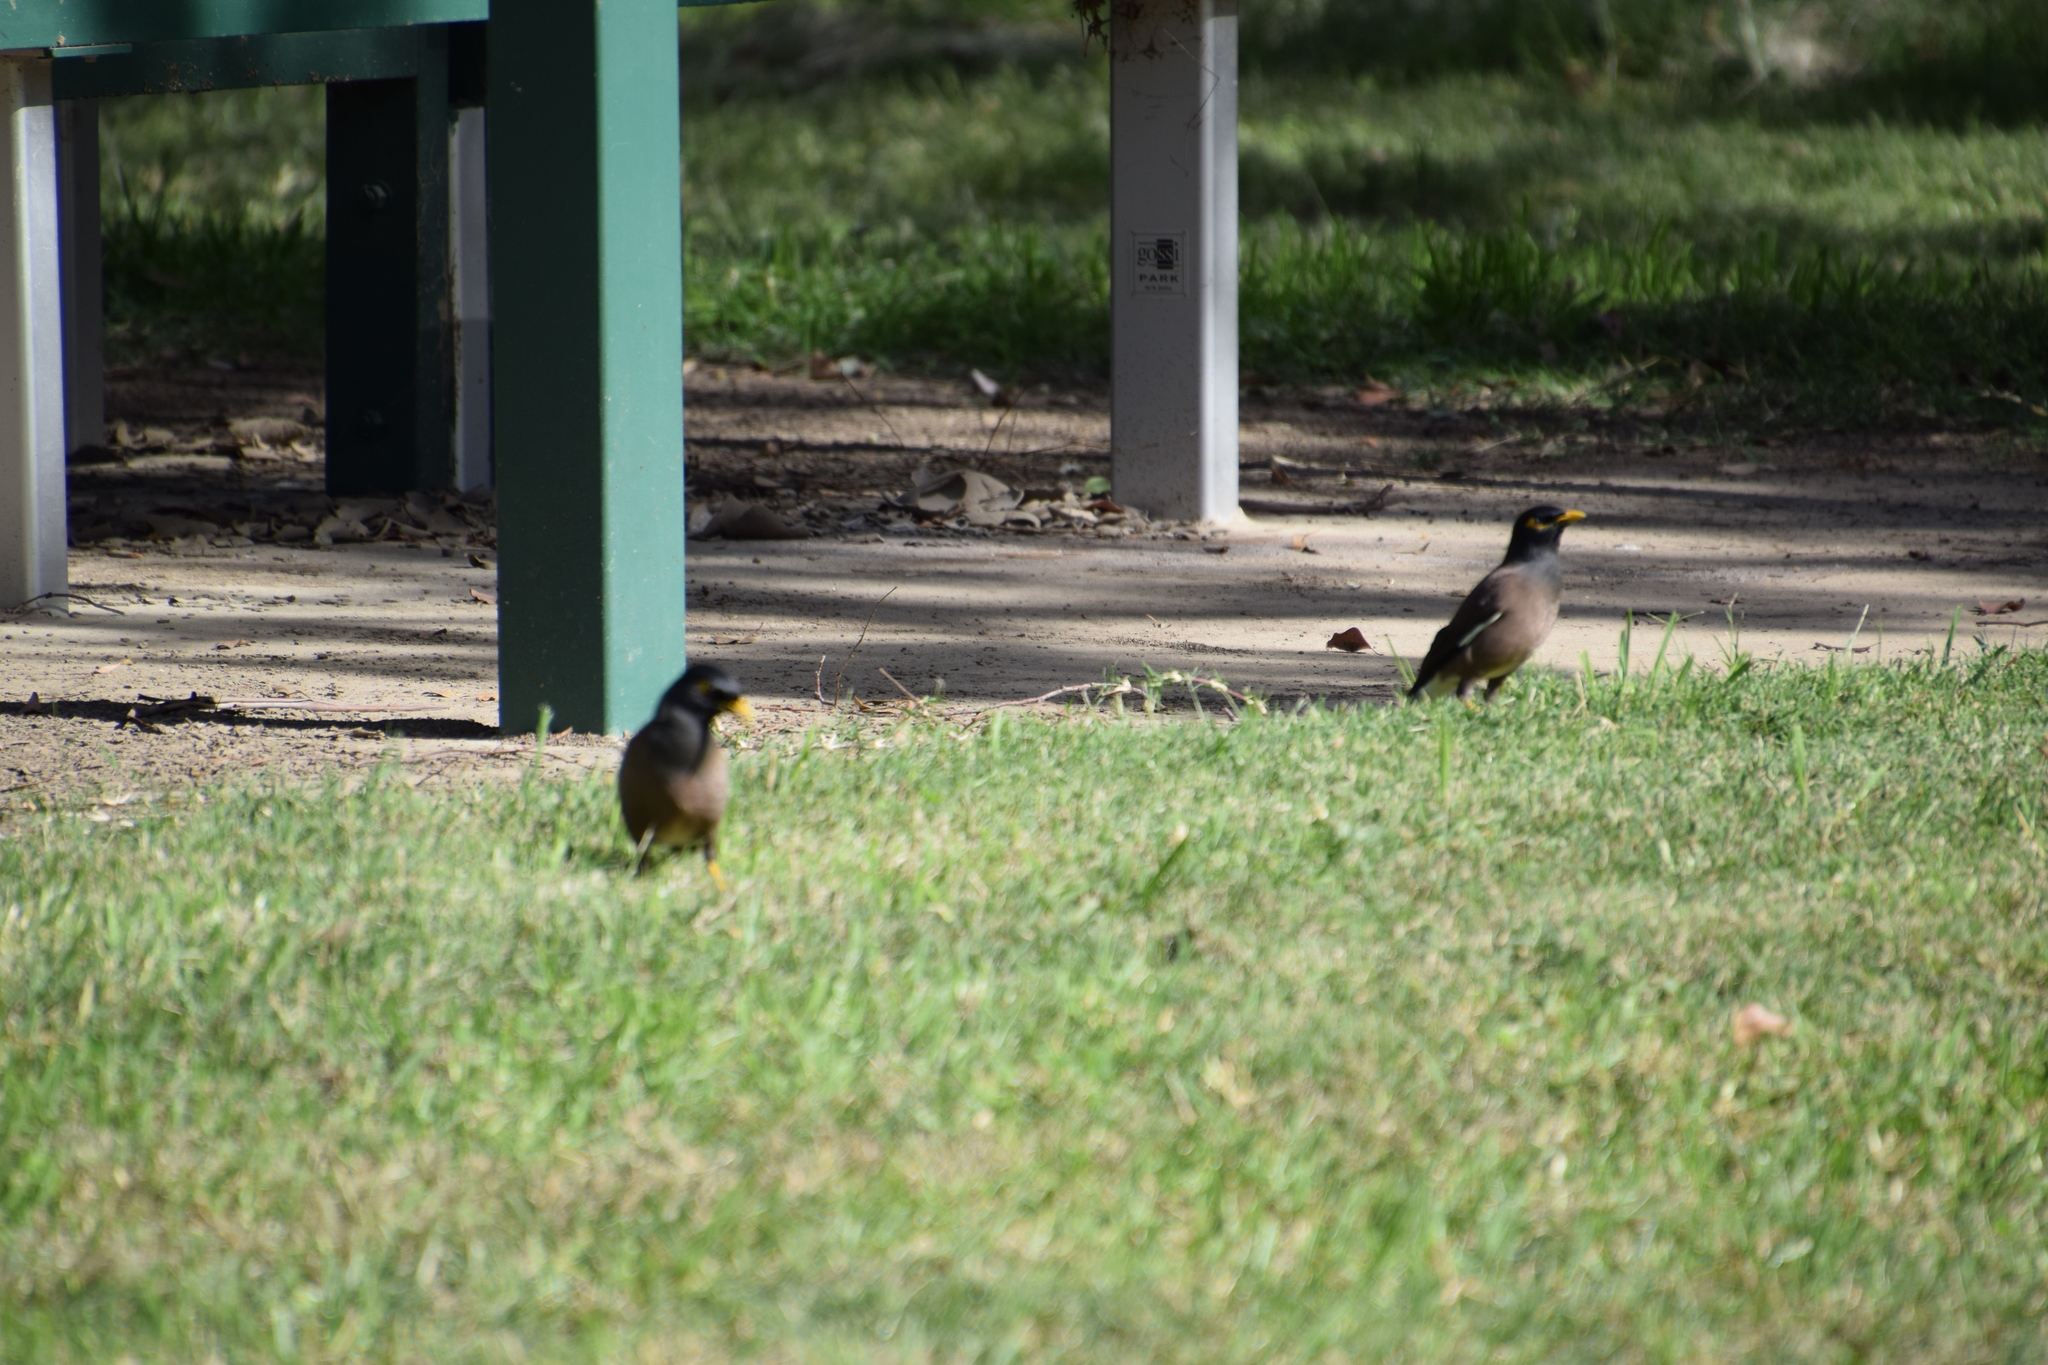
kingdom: Animalia
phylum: Chordata
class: Aves
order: Passeriformes
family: Sturnidae
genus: Acridotheres
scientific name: Acridotheres tristis
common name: Common myna
